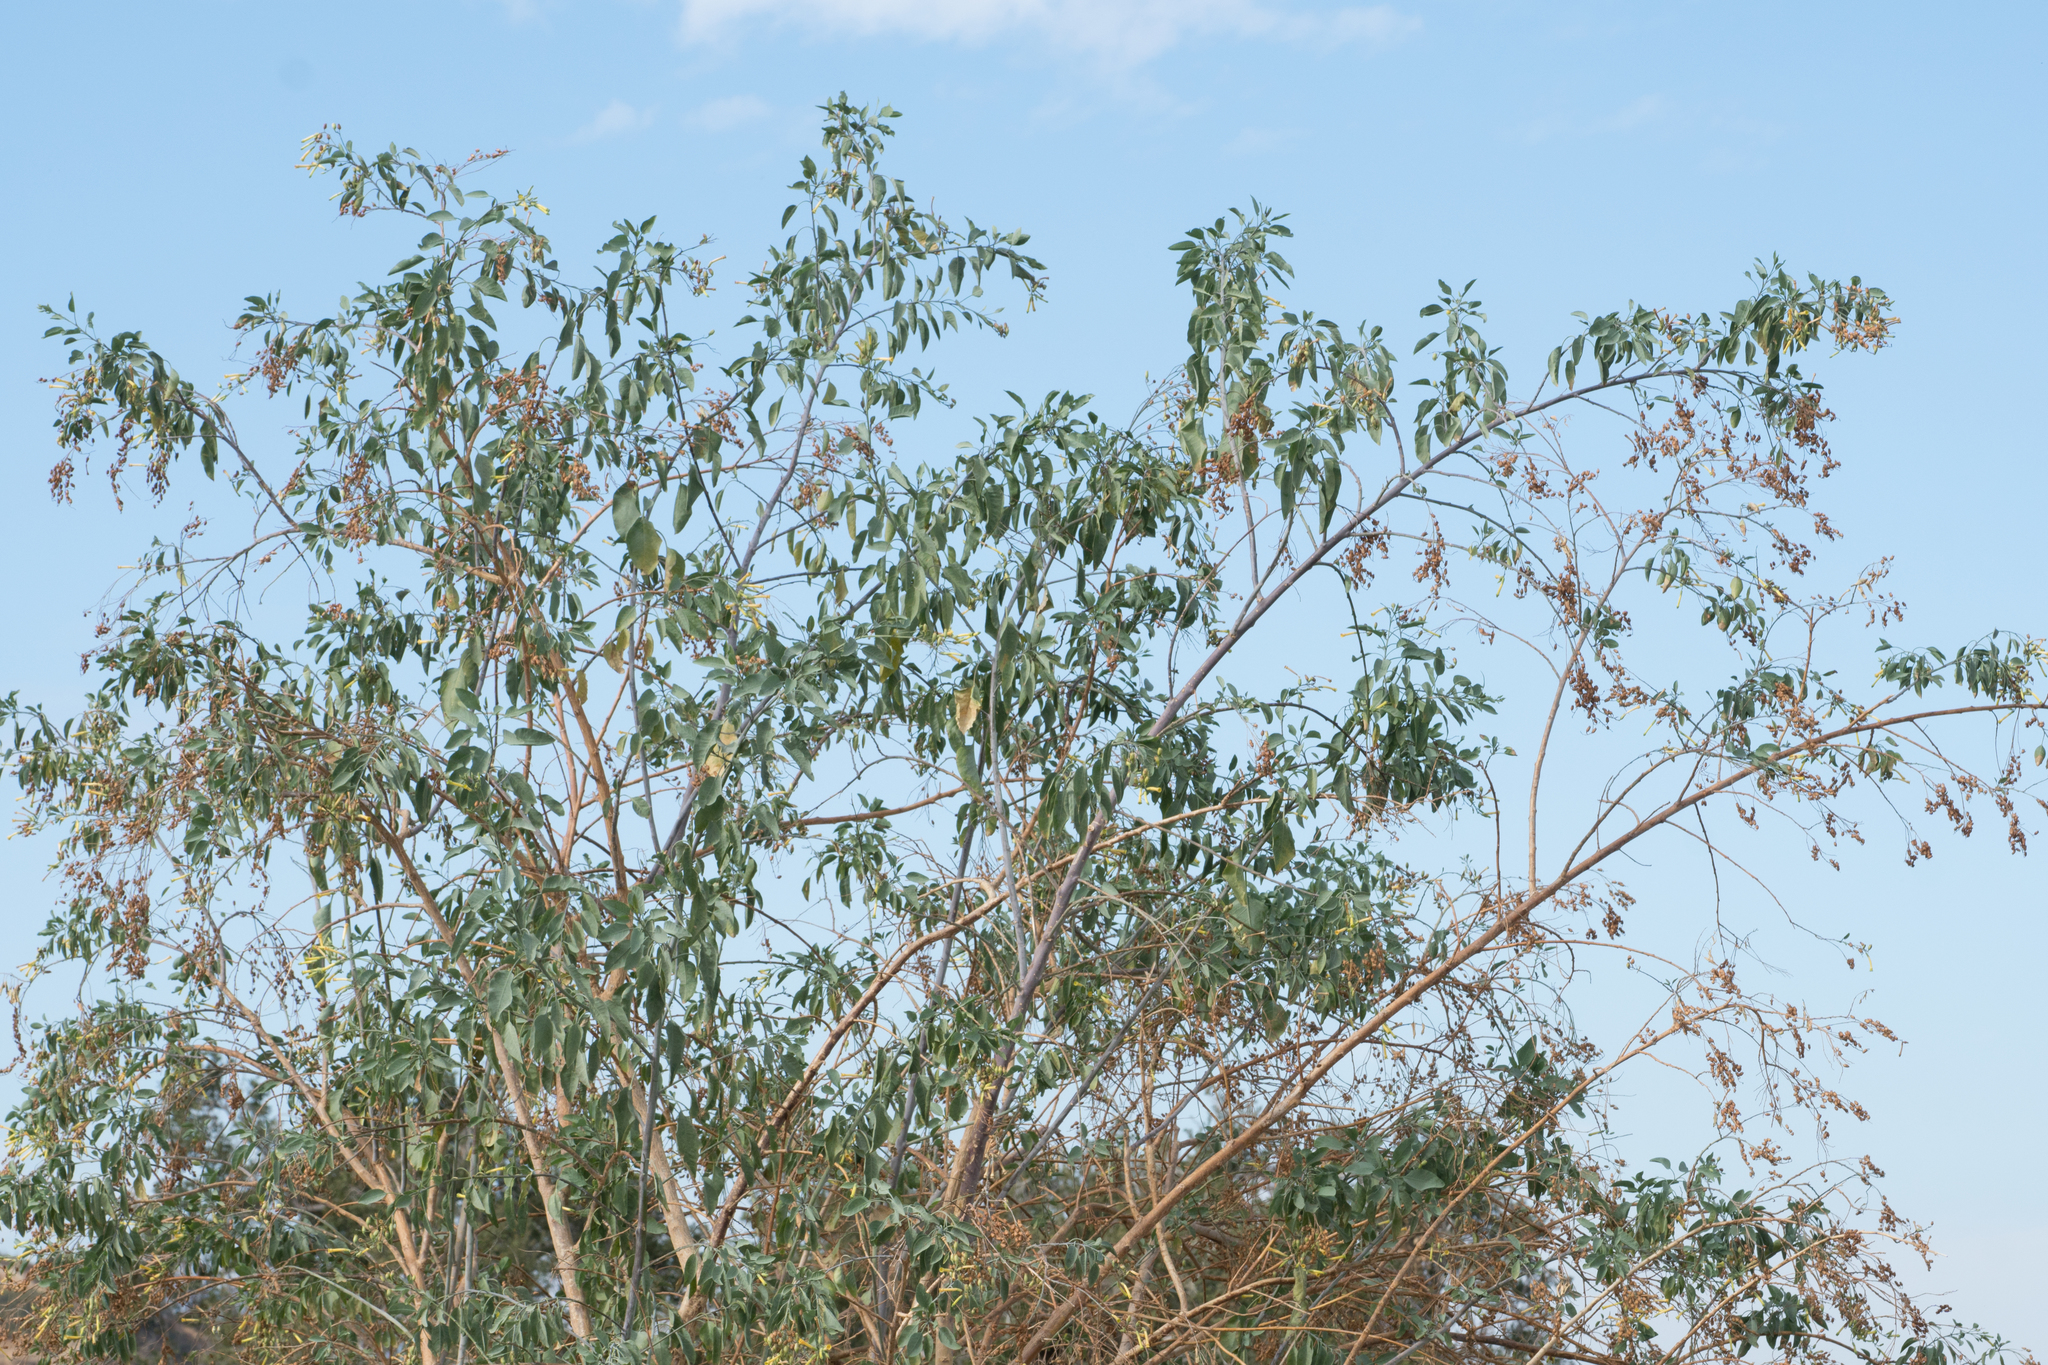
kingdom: Plantae
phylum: Tracheophyta
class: Magnoliopsida
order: Solanales
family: Solanaceae
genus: Nicotiana
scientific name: Nicotiana glauca
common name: Tree tobacco
